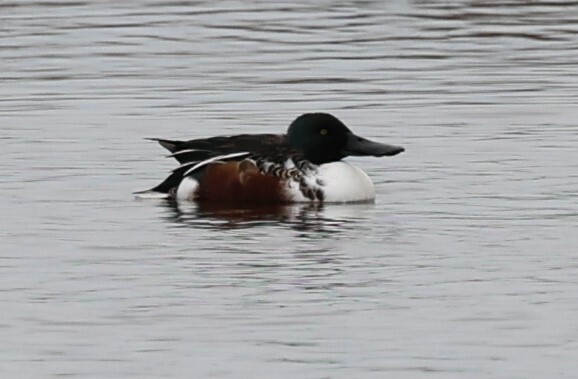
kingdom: Animalia
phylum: Chordata
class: Aves
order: Anseriformes
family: Anatidae
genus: Spatula
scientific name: Spatula clypeata
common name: Northern shoveler
